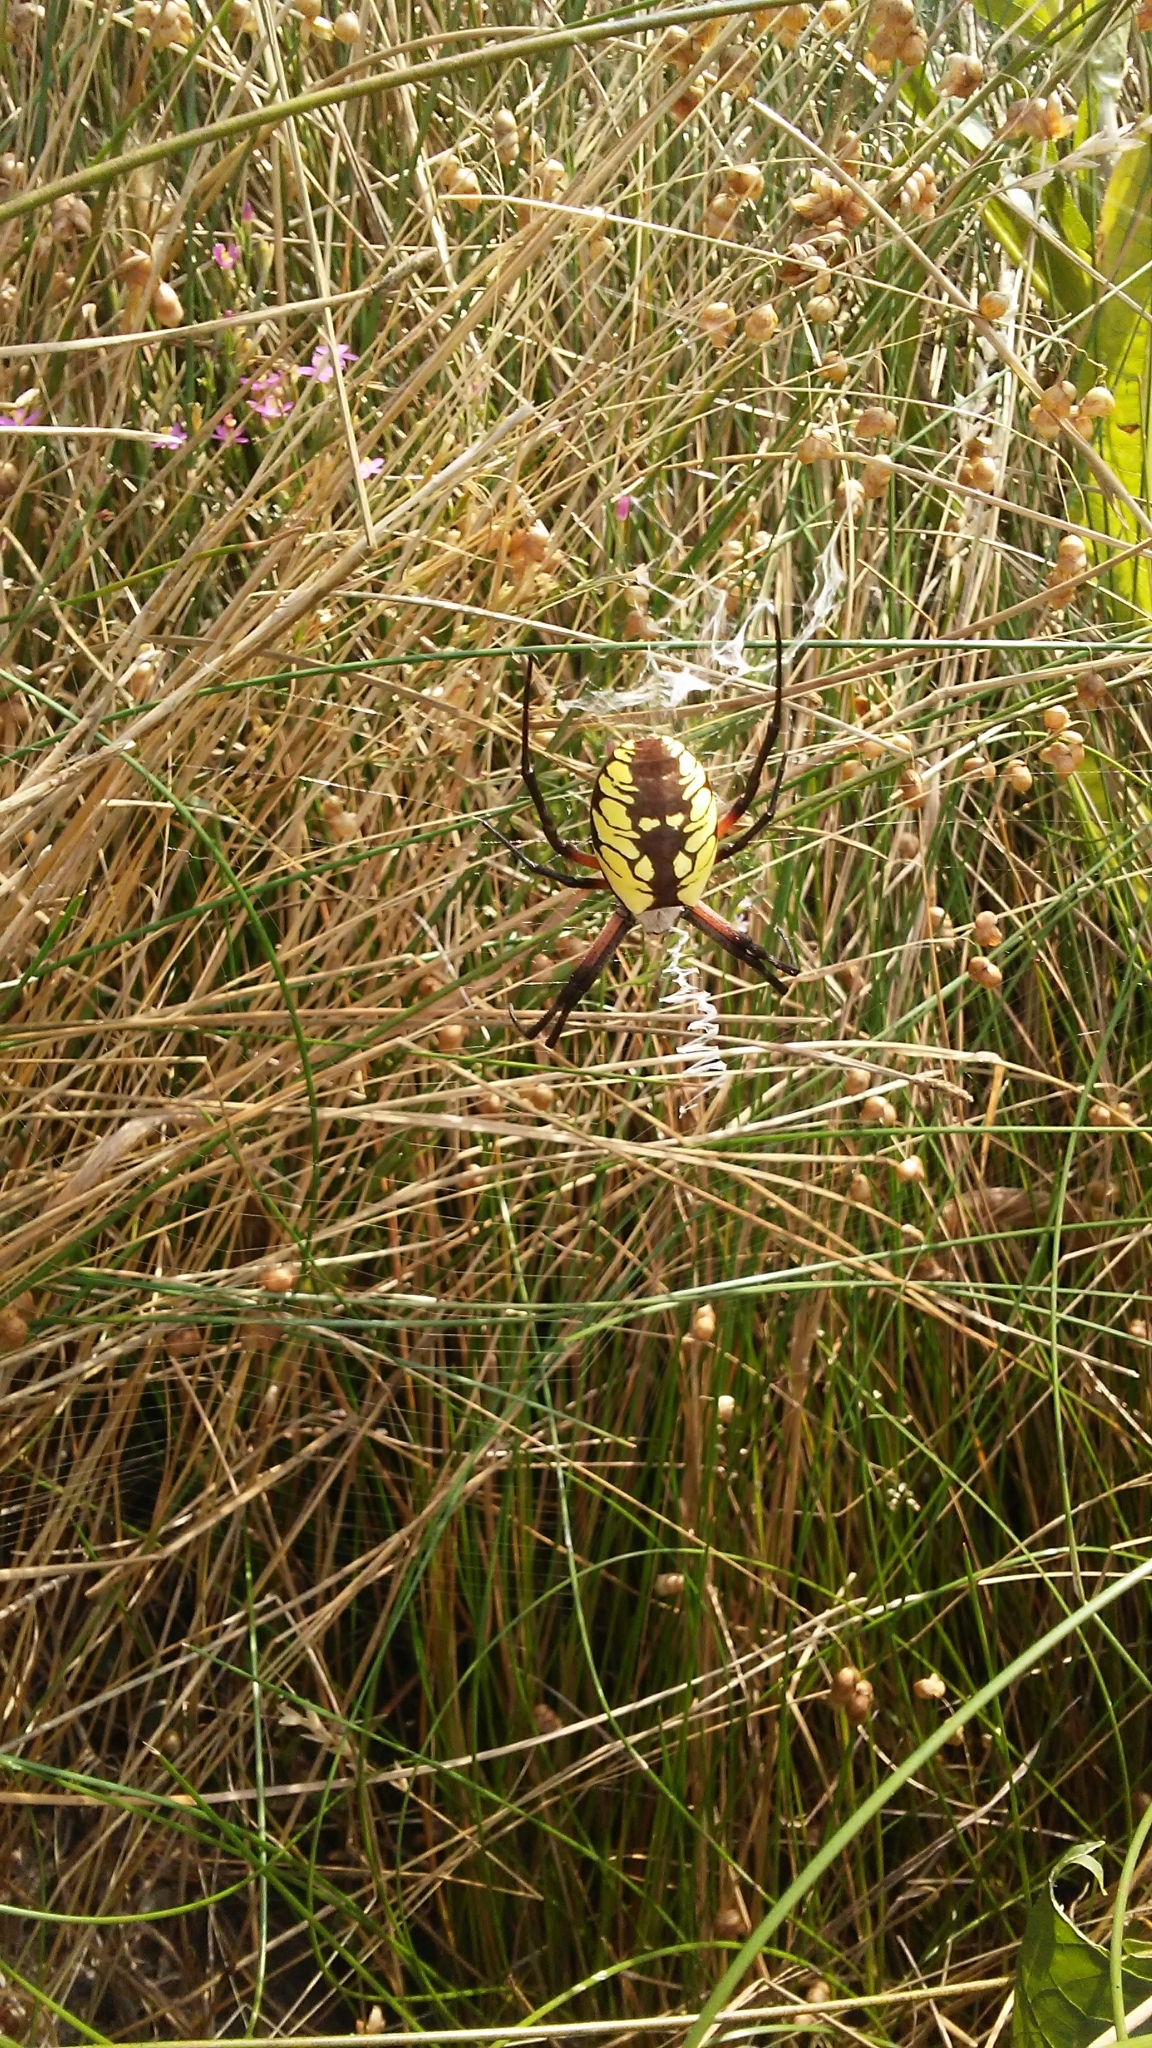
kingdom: Animalia
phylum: Arthropoda
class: Arachnida
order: Araneae
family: Araneidae
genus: Argiope
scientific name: Argiope aurantia
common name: Orb weavers
